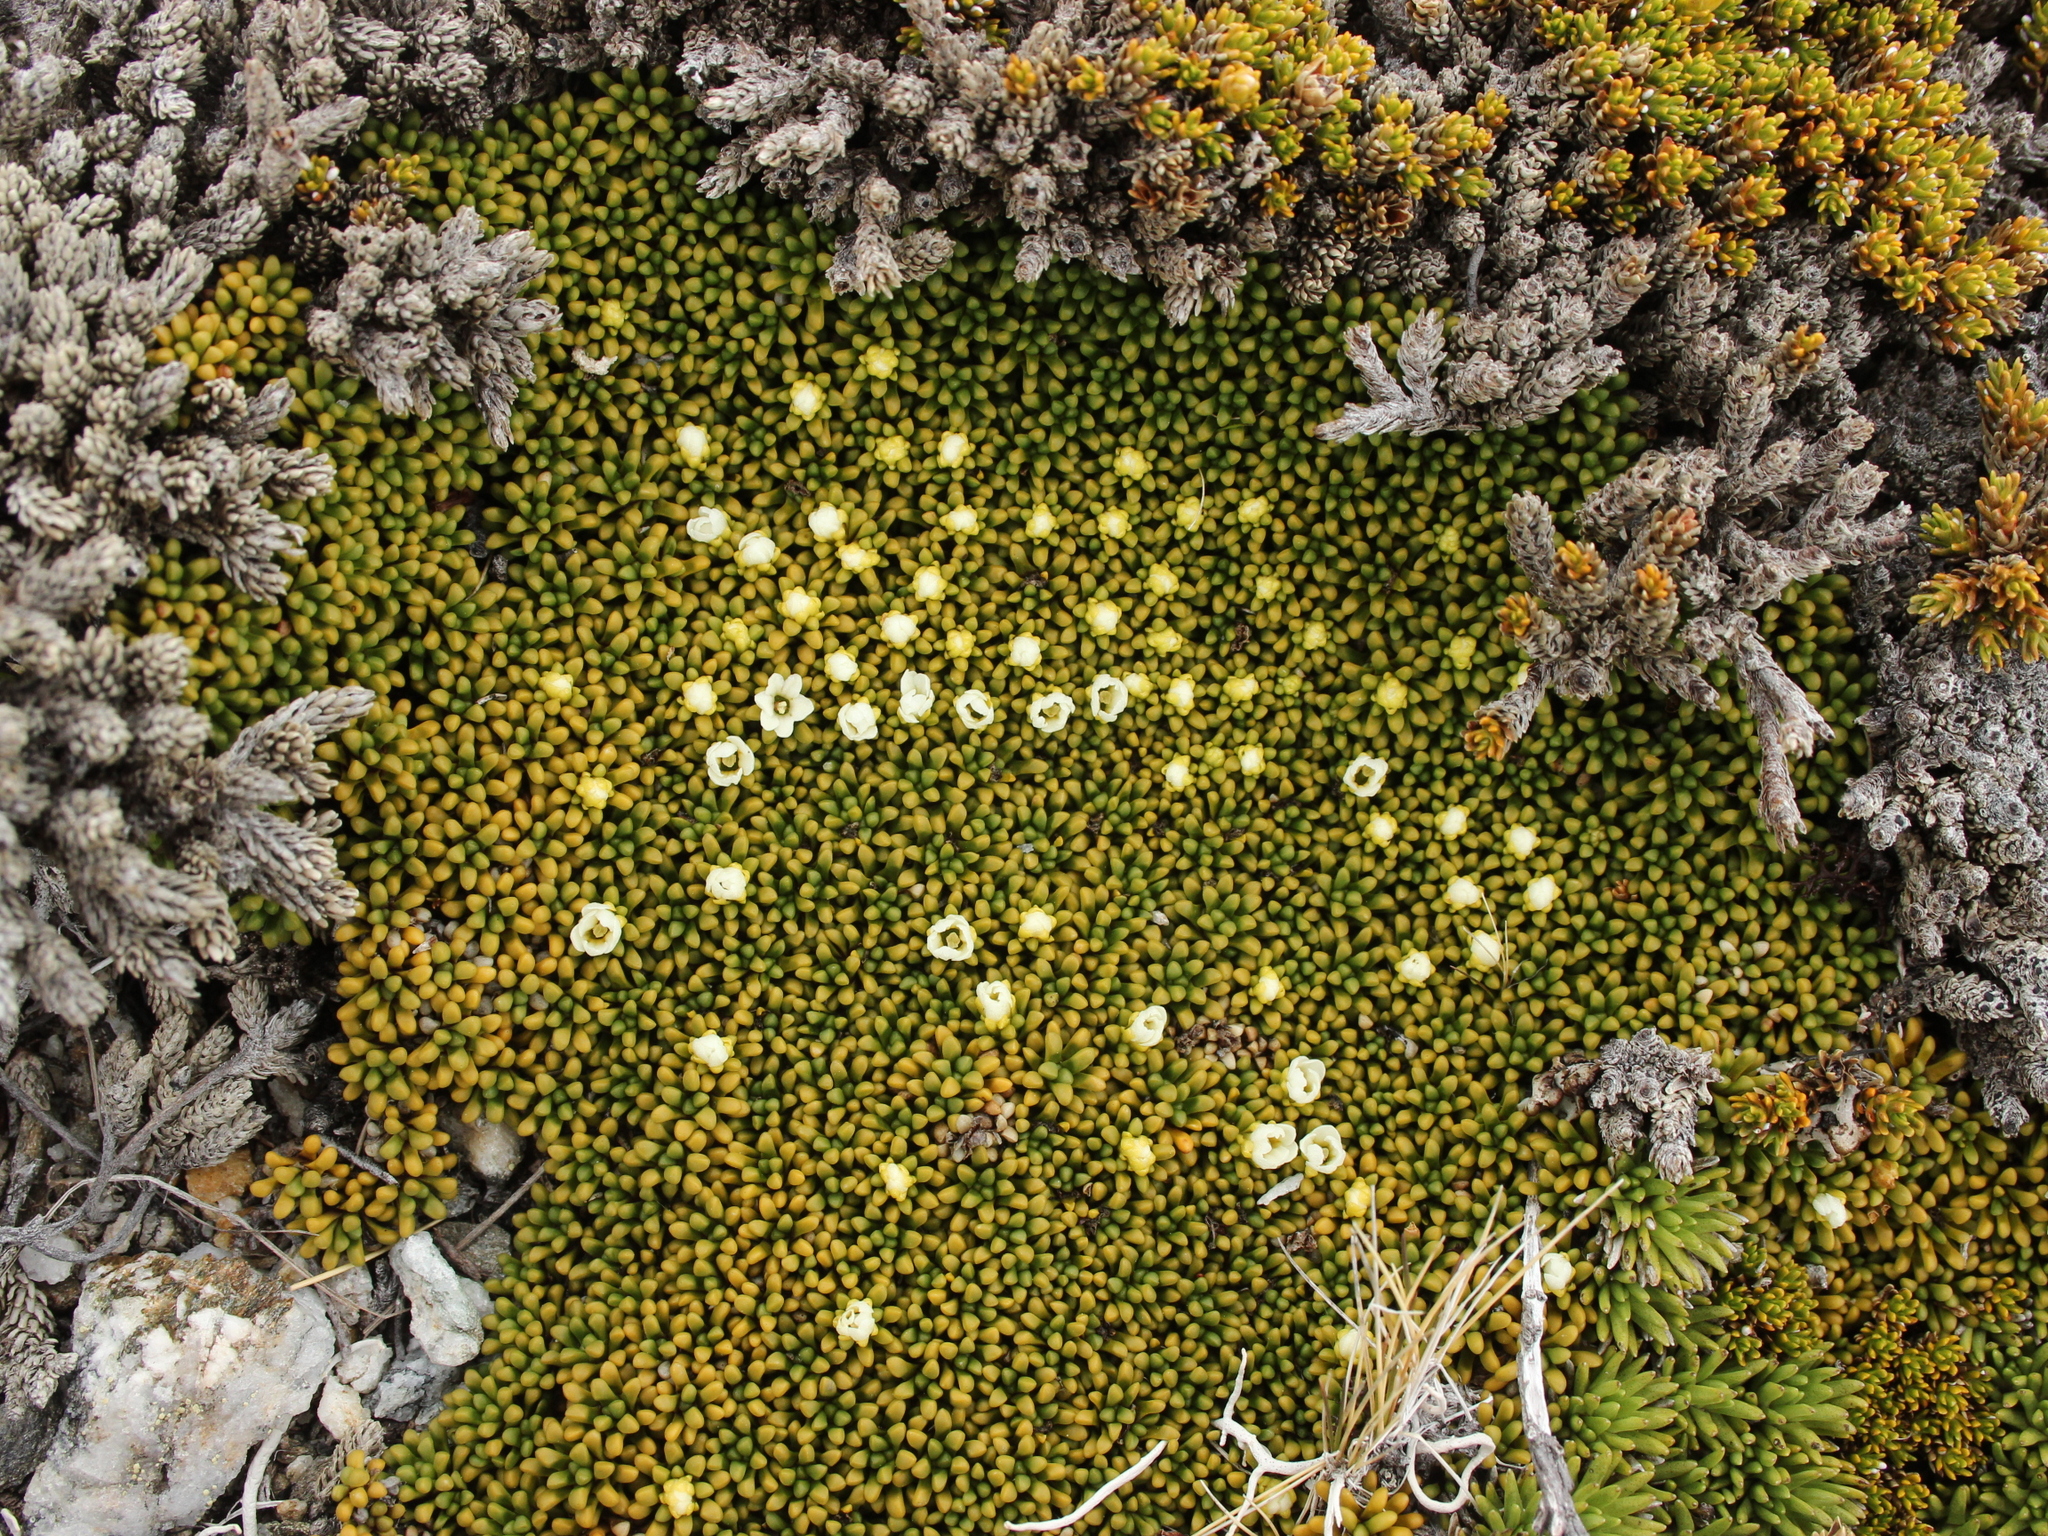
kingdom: Plantae
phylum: Tracheophyta
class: Magnoliopsida
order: Asterales
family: Stylidiaceae
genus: Phyllachne
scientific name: Phyllachne rubra
